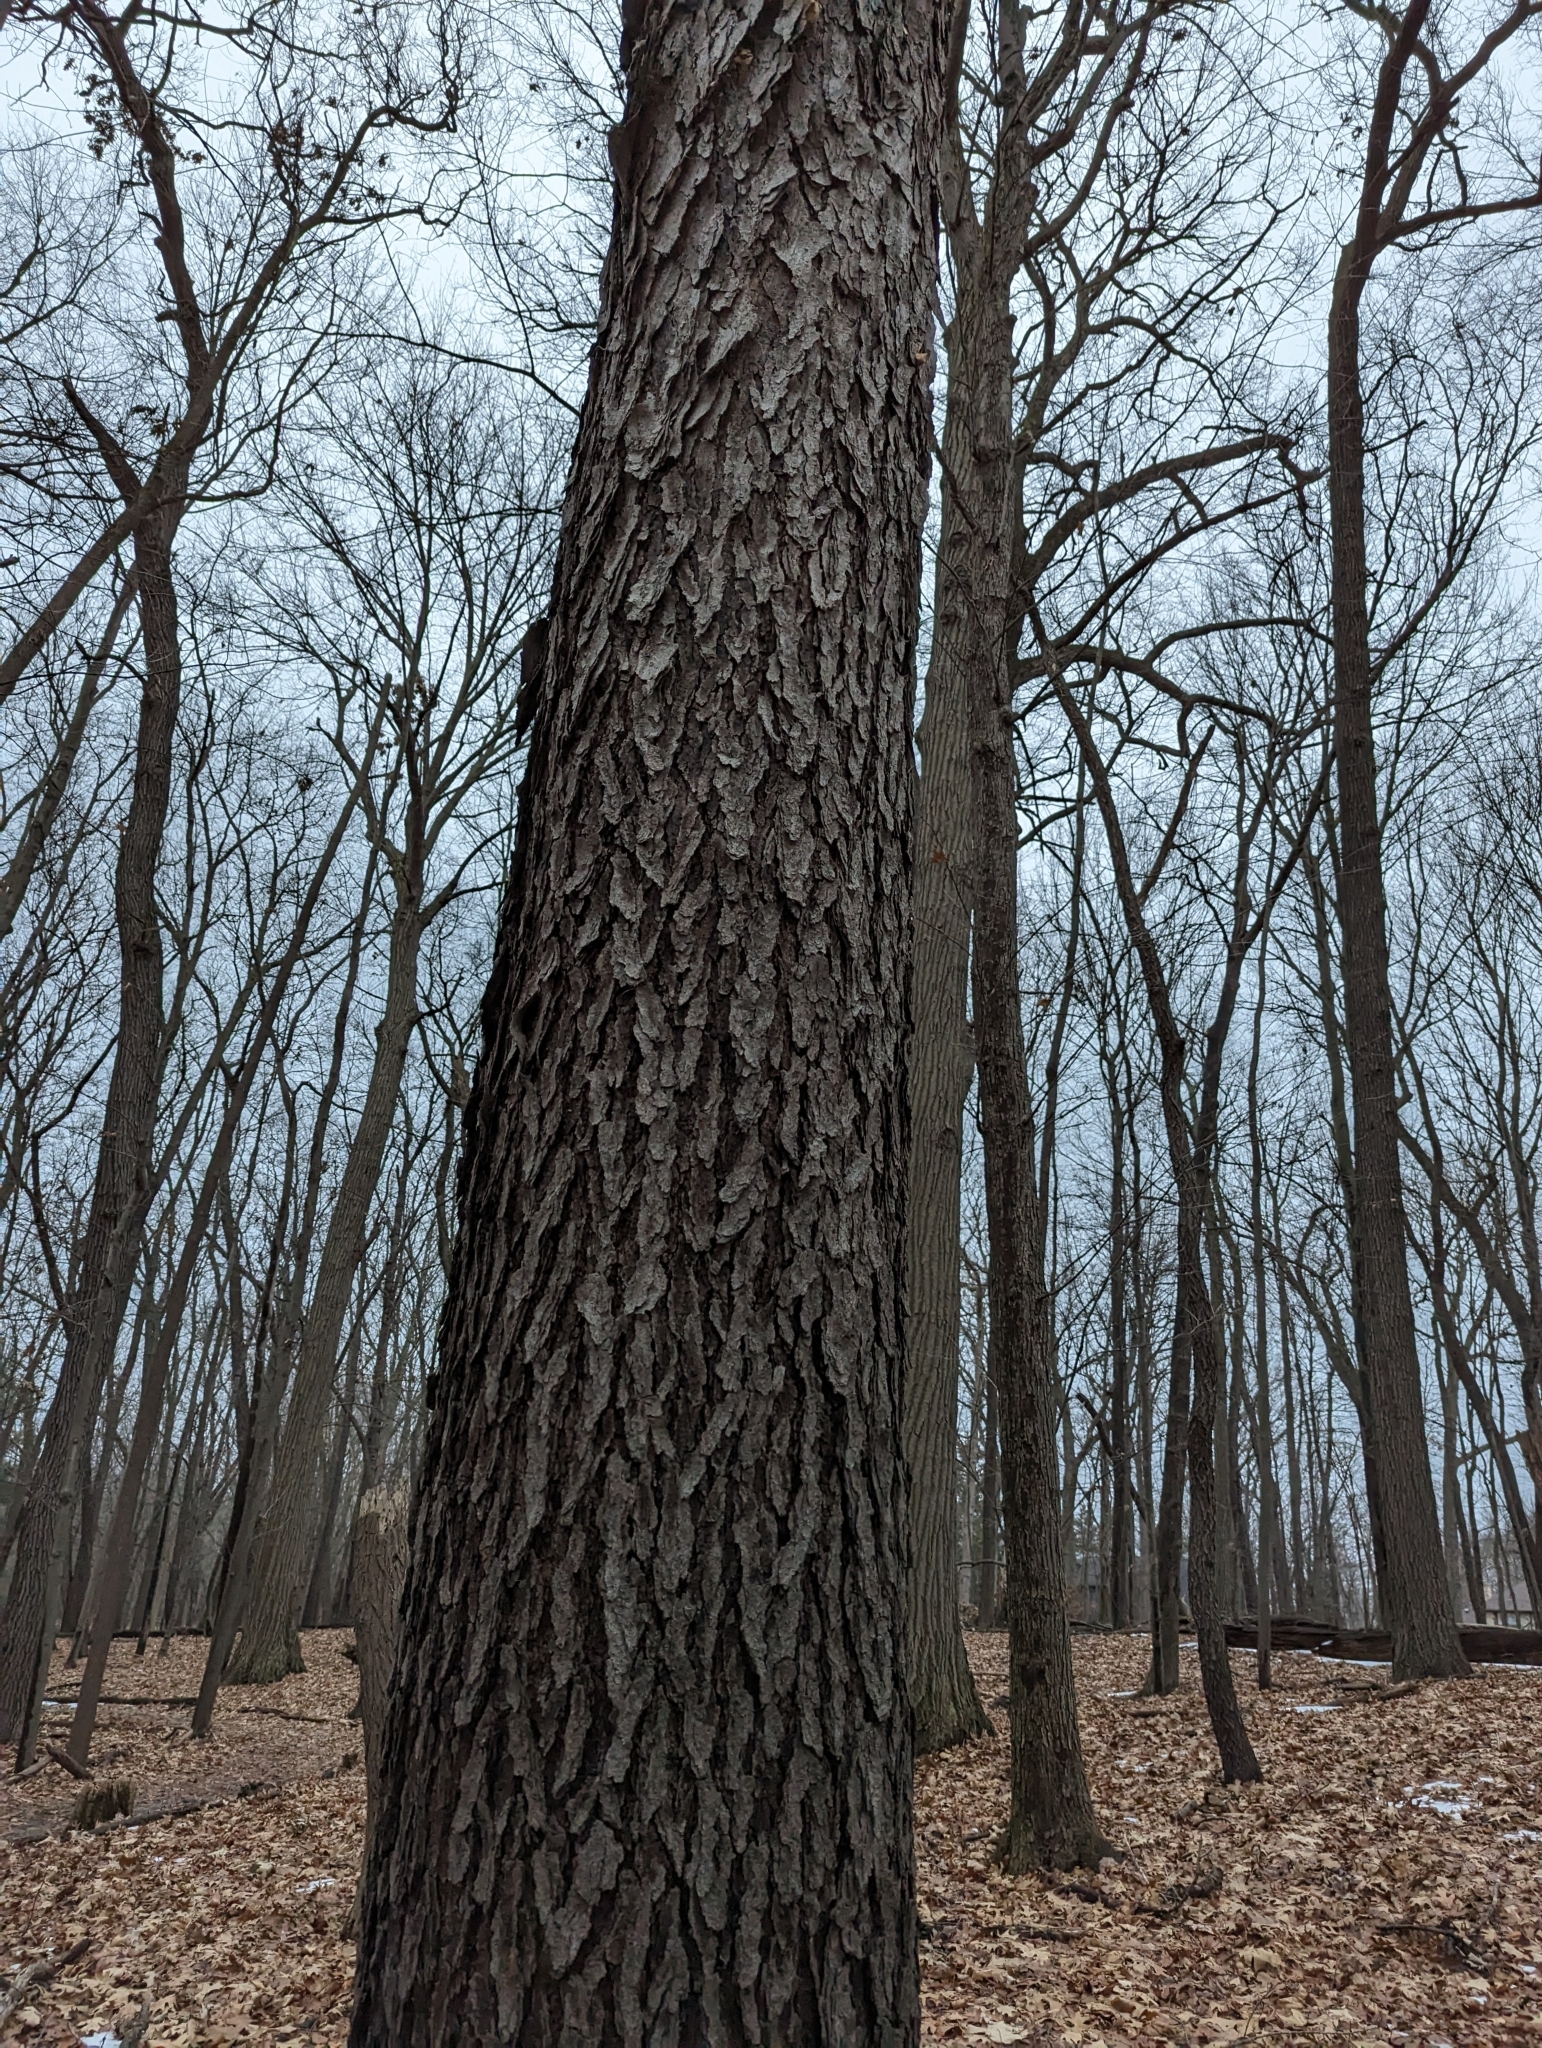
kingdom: Plantae
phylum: Tracheophyta
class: Magnoliopsida
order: Rosales
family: Rosaceae
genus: Prunus
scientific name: Prunus serotina
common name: Black cherry
